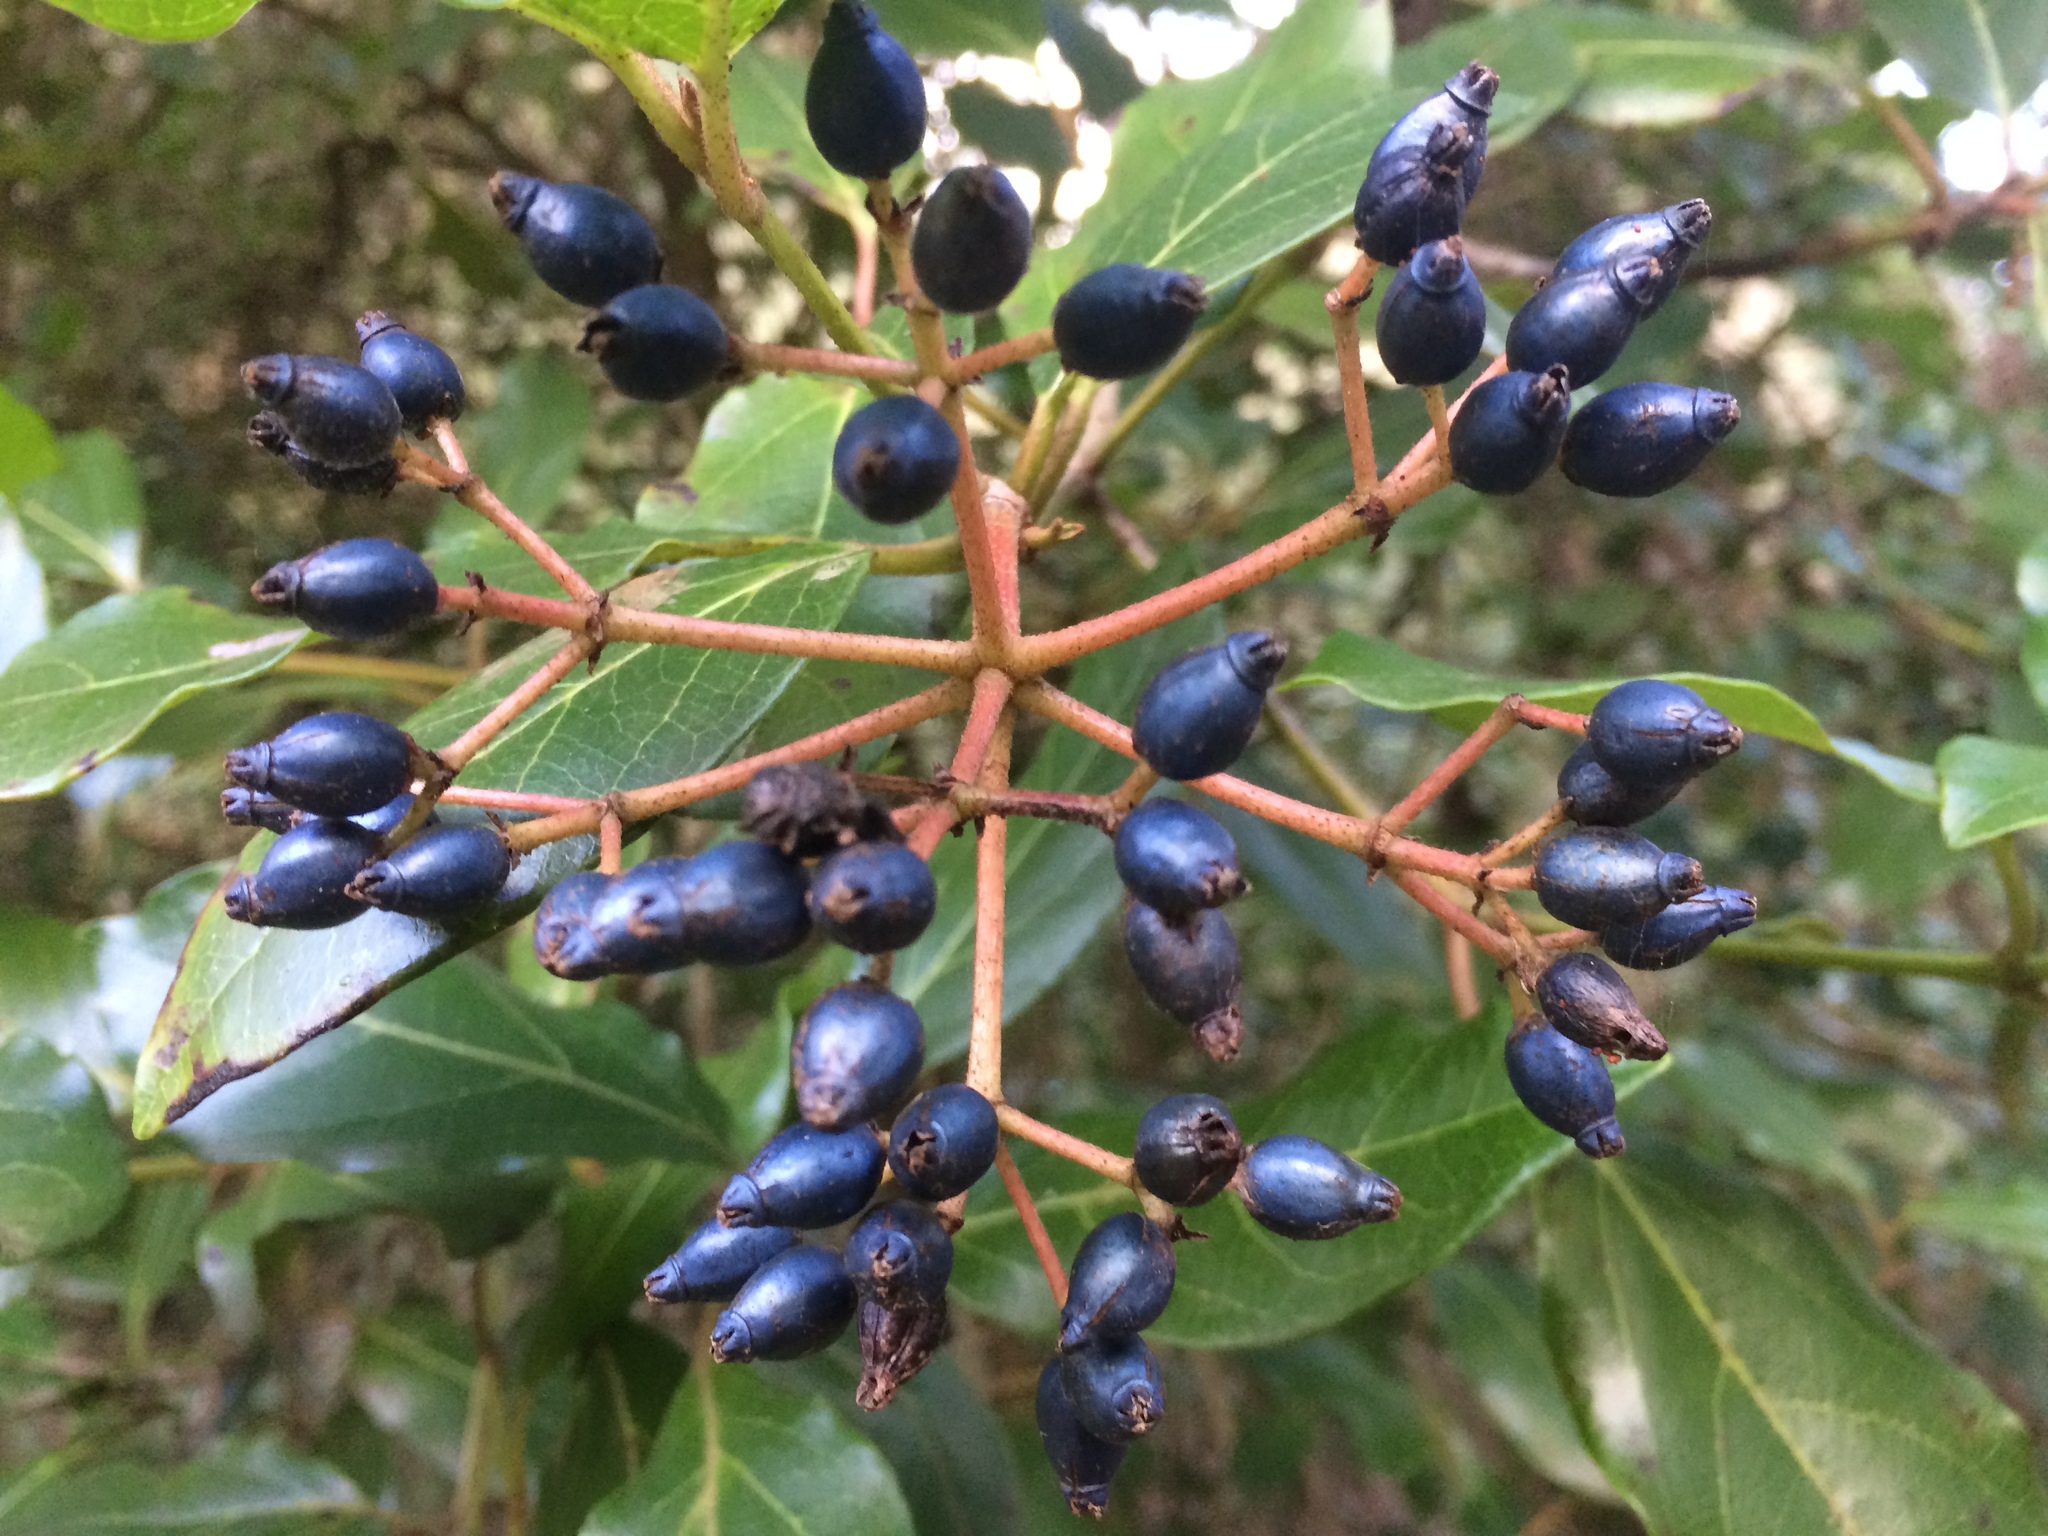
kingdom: Plantae
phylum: Tracheophyta
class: Magnoliopsida
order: Dipsacales
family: Viburnaceae
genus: Viburnum
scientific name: Viburnum tinus
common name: Laurustinus
